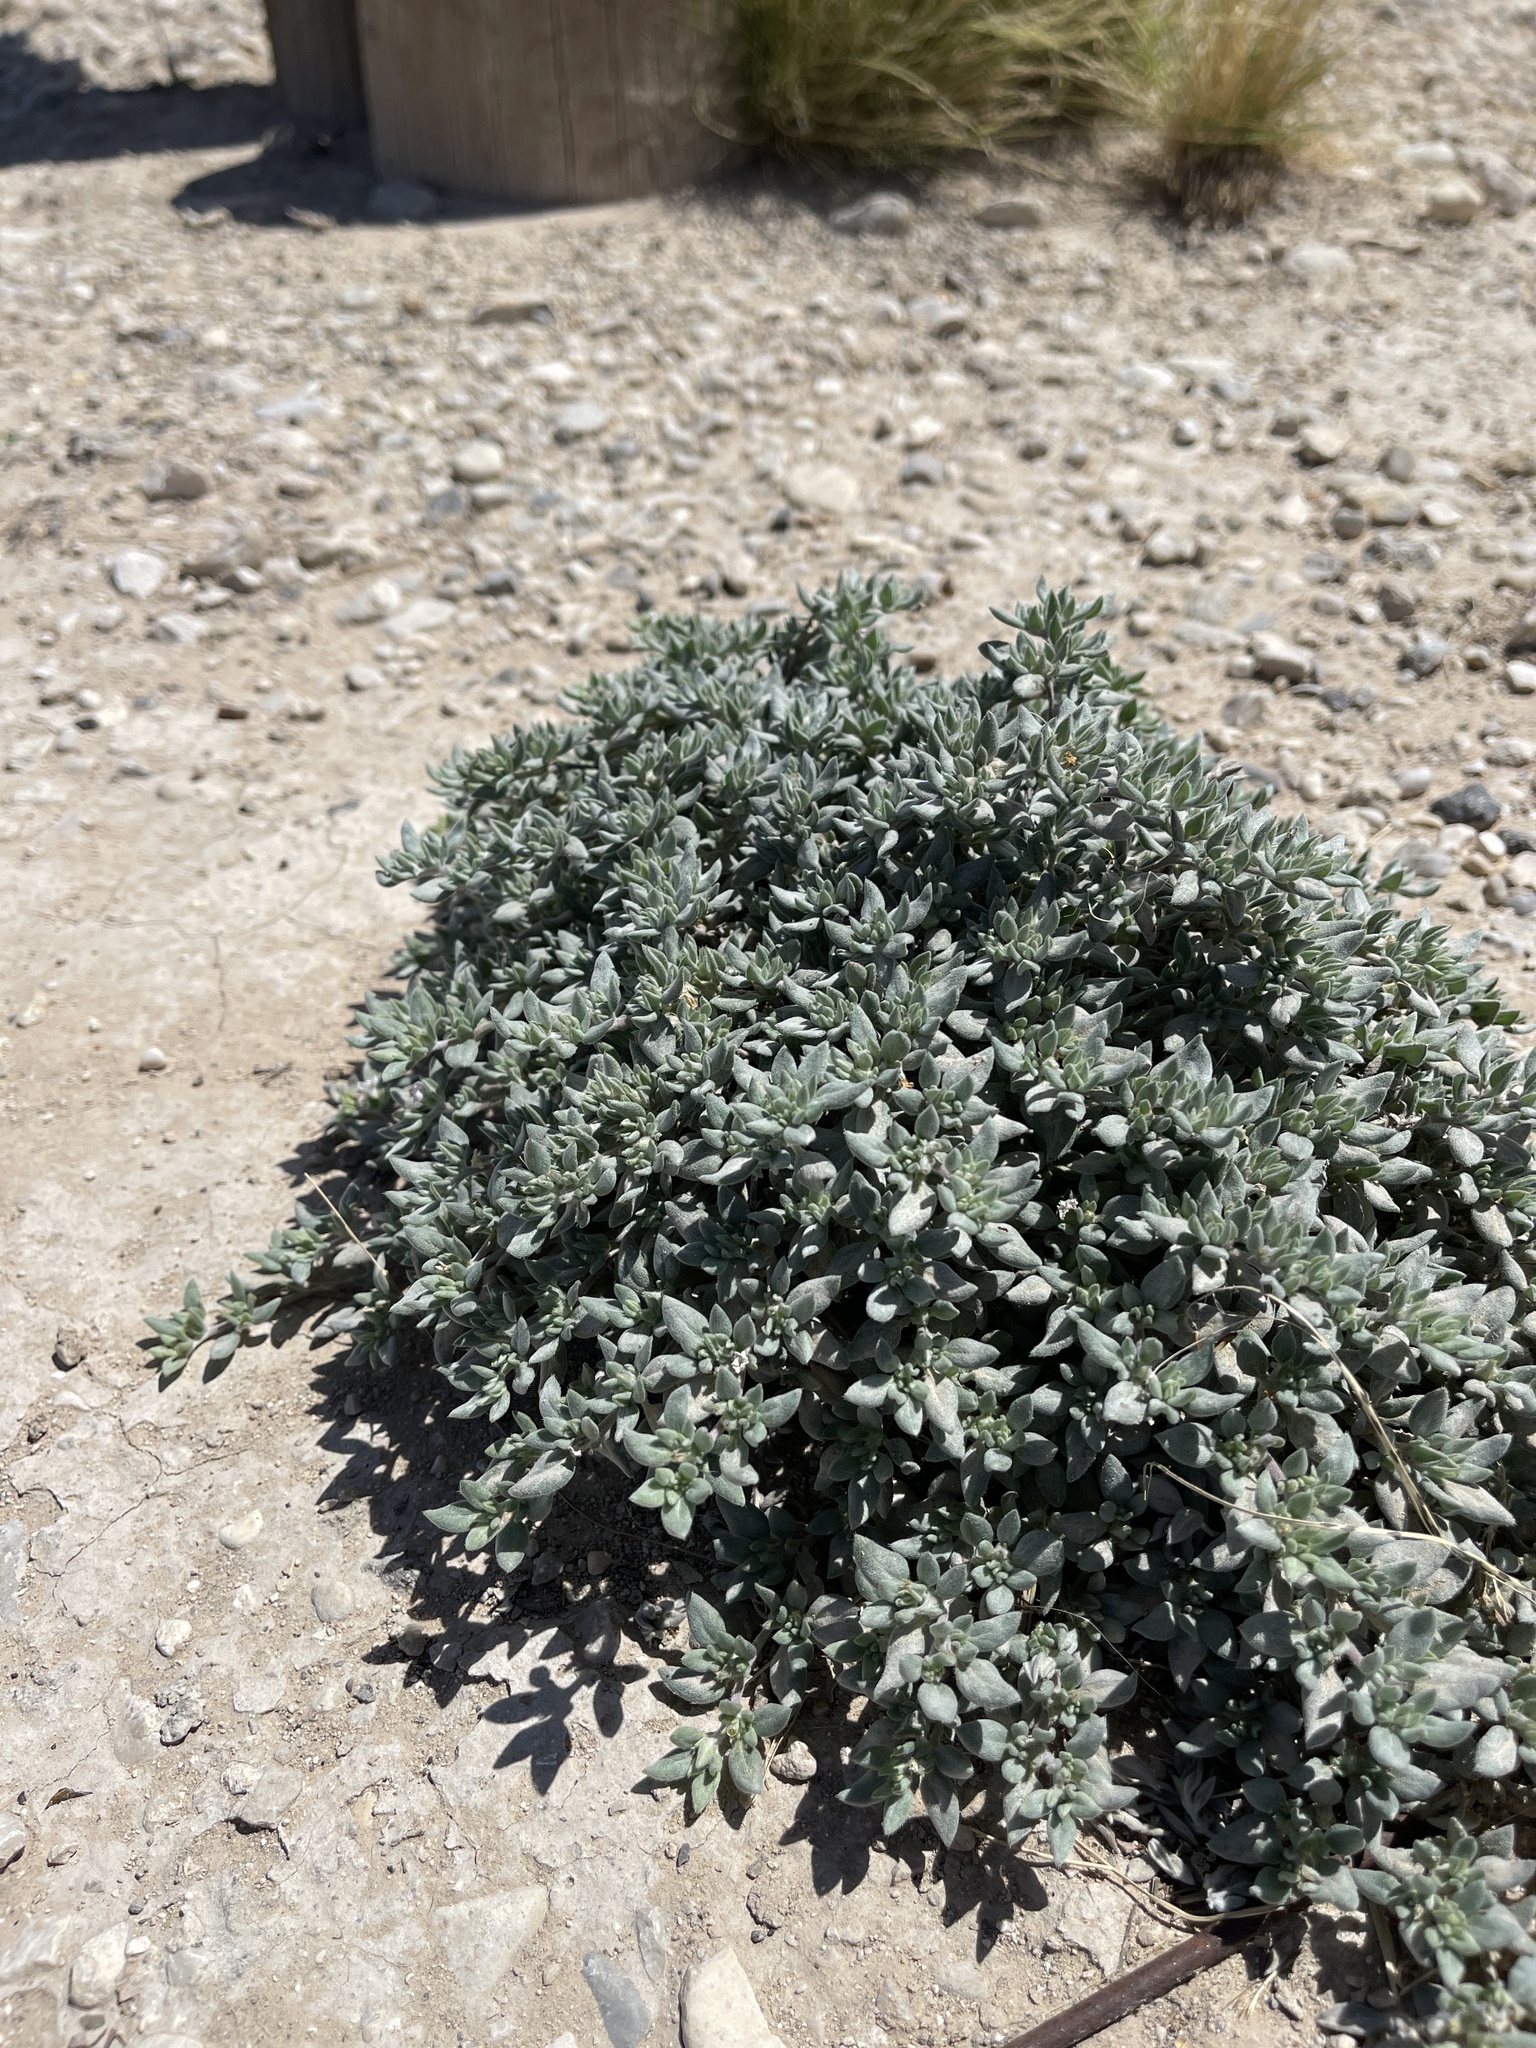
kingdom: Plantae
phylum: Tracheophyta
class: Magnoliopsida
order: Boraginales
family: Ehretiaceae
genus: Tiquilia
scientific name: Tiquilia canescens
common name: Hairy tiquilia
